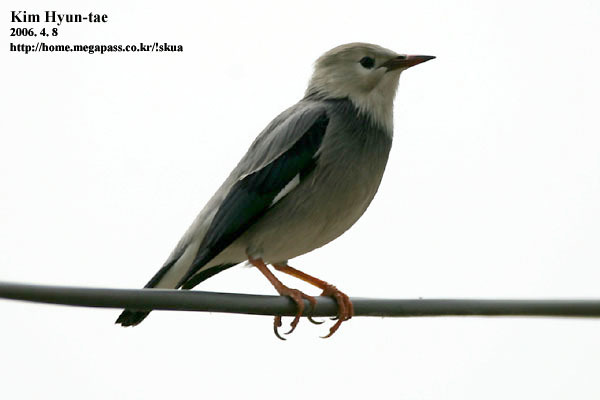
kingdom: Animalia
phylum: Chordata
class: Aves
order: Passeriformes
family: Sturnidae
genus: Spodiopsar
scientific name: Spodiopsar sericeus
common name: Red-billed starling
